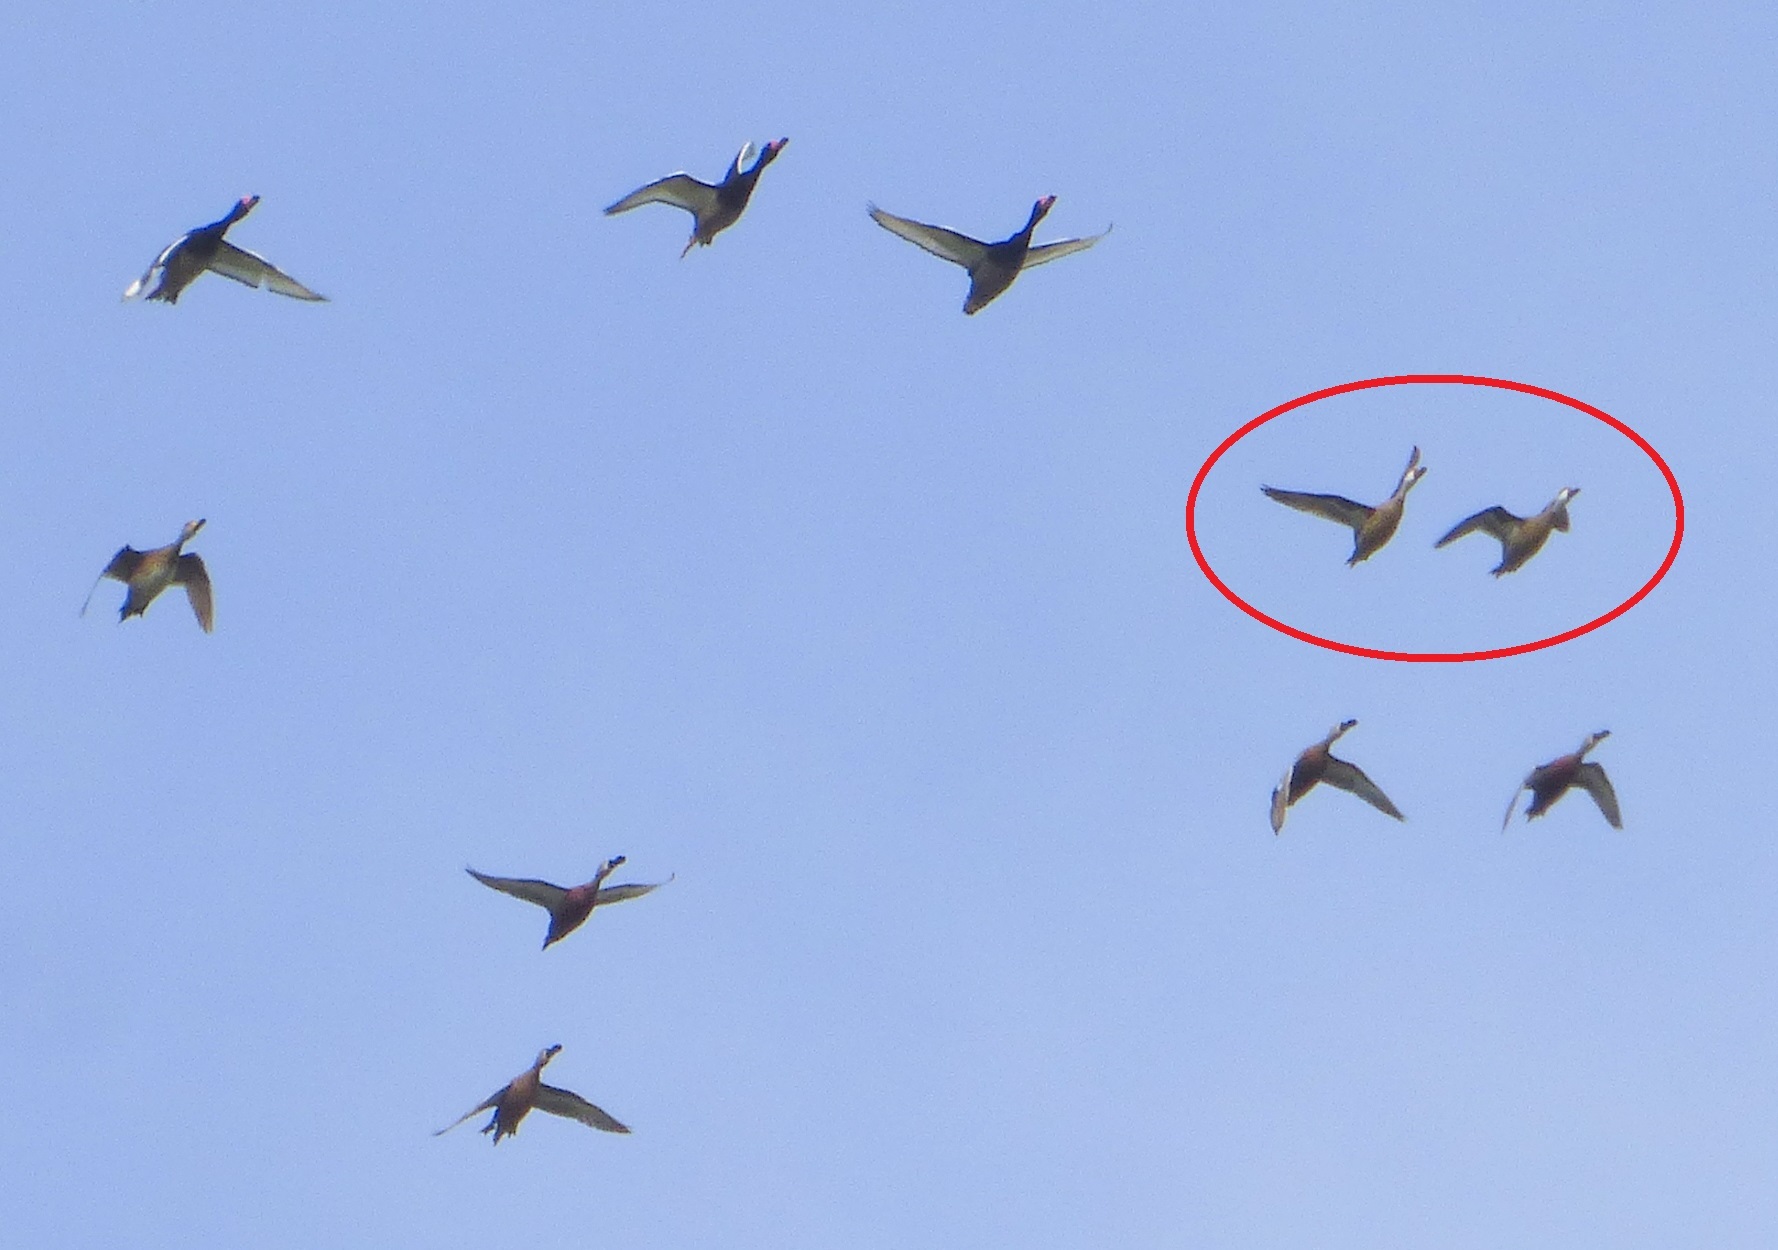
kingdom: Animalia
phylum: Chordata
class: Aves
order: Anseriformes
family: Anatidae
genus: Anas
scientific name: Anas bahamensis
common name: White-cheeked pintail
